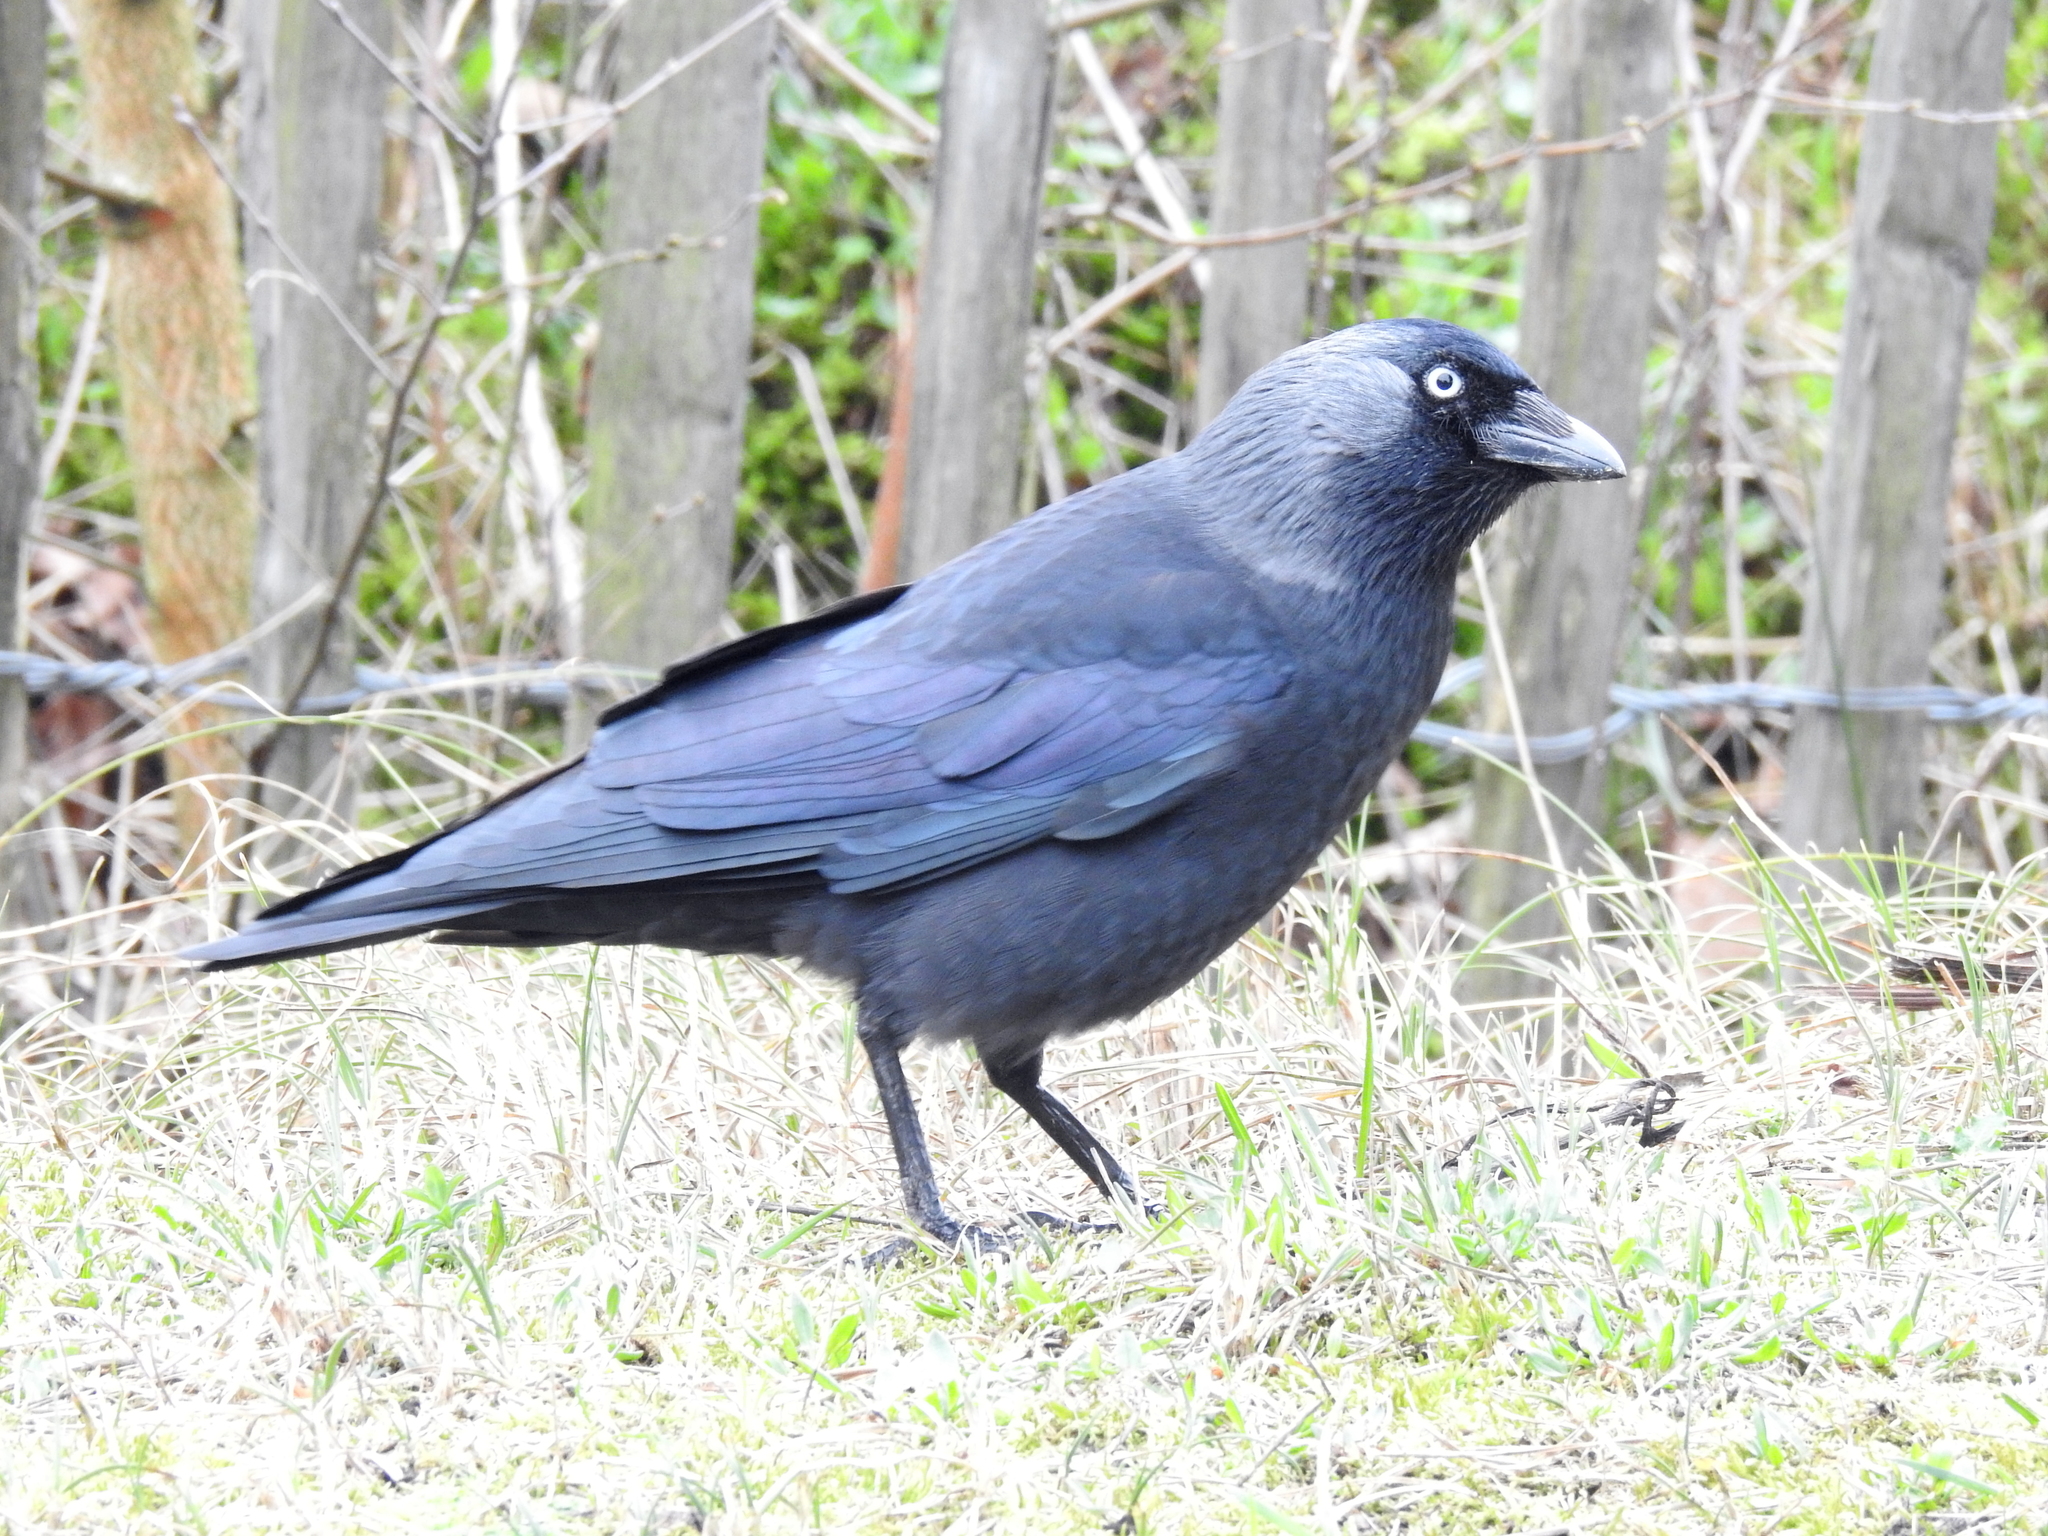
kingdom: Animalia
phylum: Chordata
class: Aves
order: Passeriformes
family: Corvidae
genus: Coloeus
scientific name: Coloeus monedula
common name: Western jackdaw
